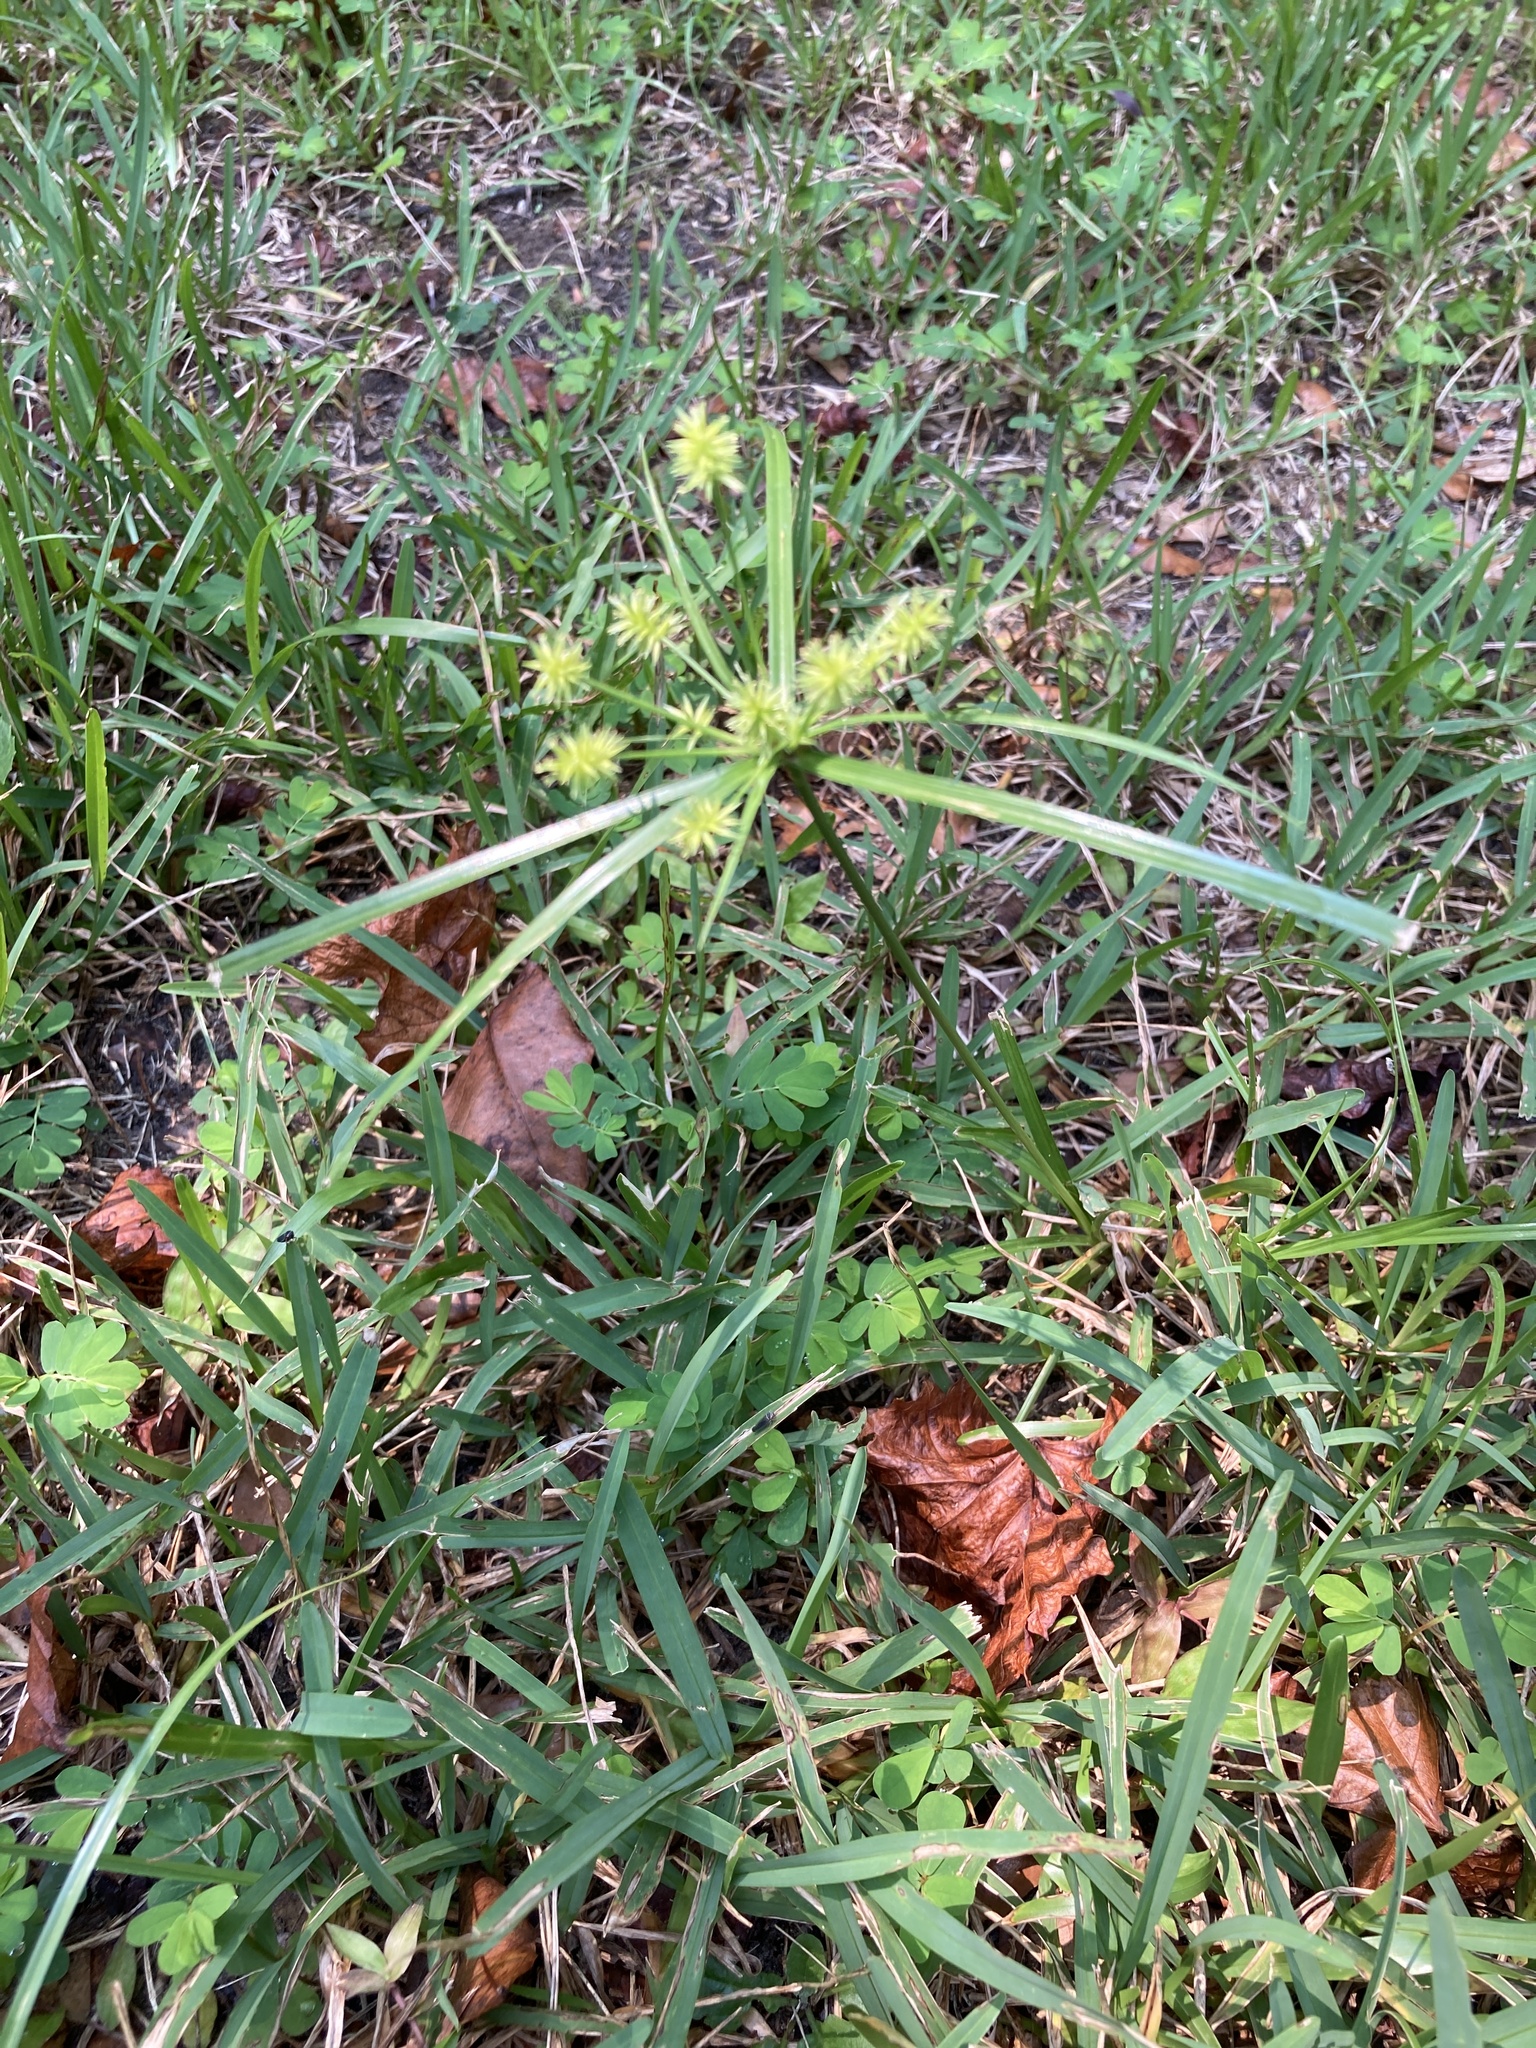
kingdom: Plantae
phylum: Tracheophyta
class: Liliopsida
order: Poales
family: Cyperaceae
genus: Cyperus
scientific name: Cyperus croceus
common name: Baldwin's flatsedge
